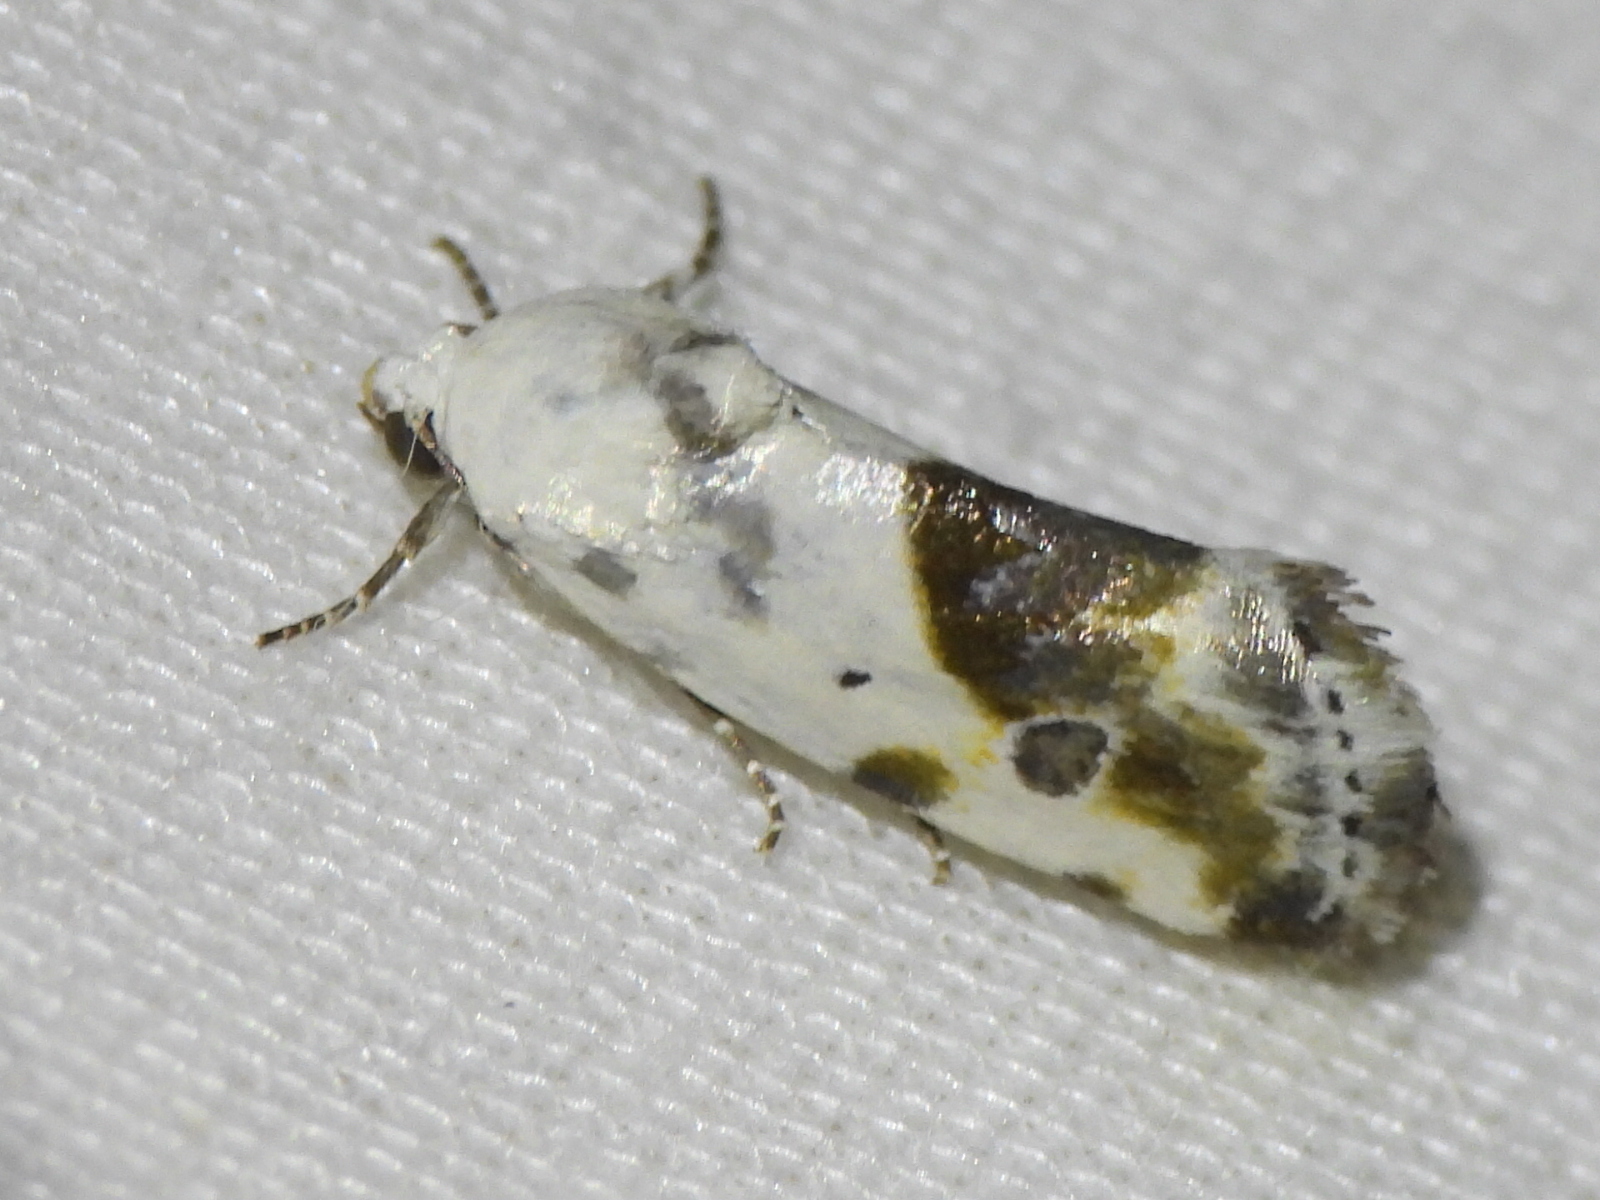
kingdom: Animalia
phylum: Arthropoda
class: Insecta
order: Lepidoptera
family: Noctuidae
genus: Acontia
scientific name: Acontia candefacta
